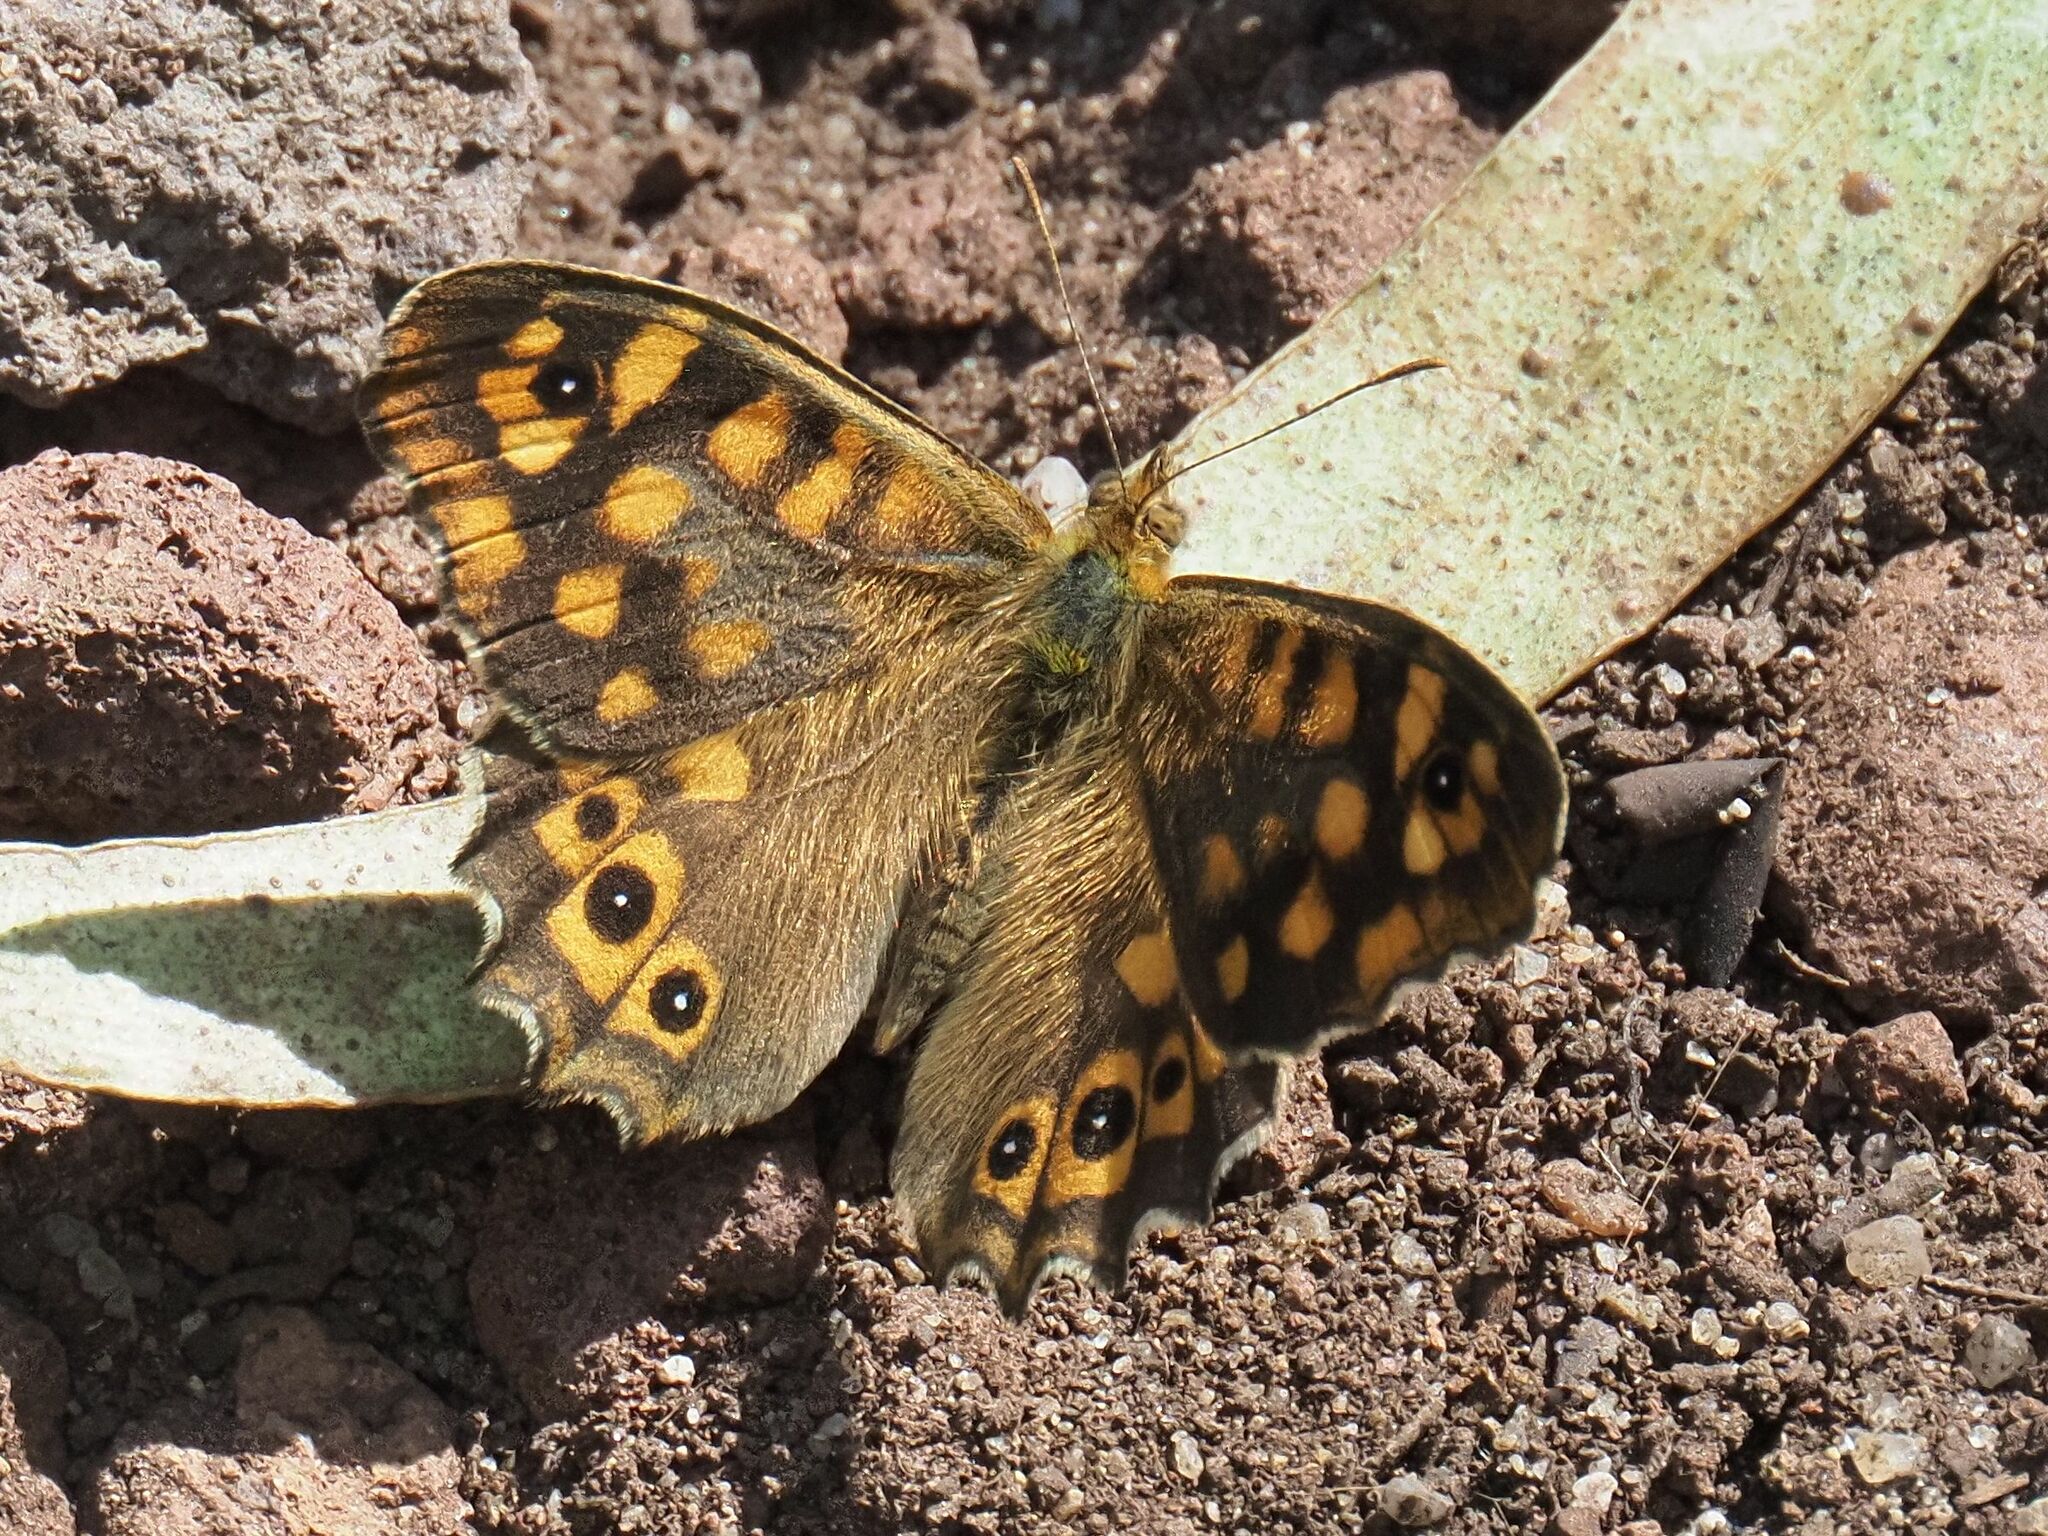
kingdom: Animalia
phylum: Arthropoda
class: Insecta
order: Lepidoptera
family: Nymphalidae
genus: Pararge
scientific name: Pararge aegeria
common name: Speckled wood
